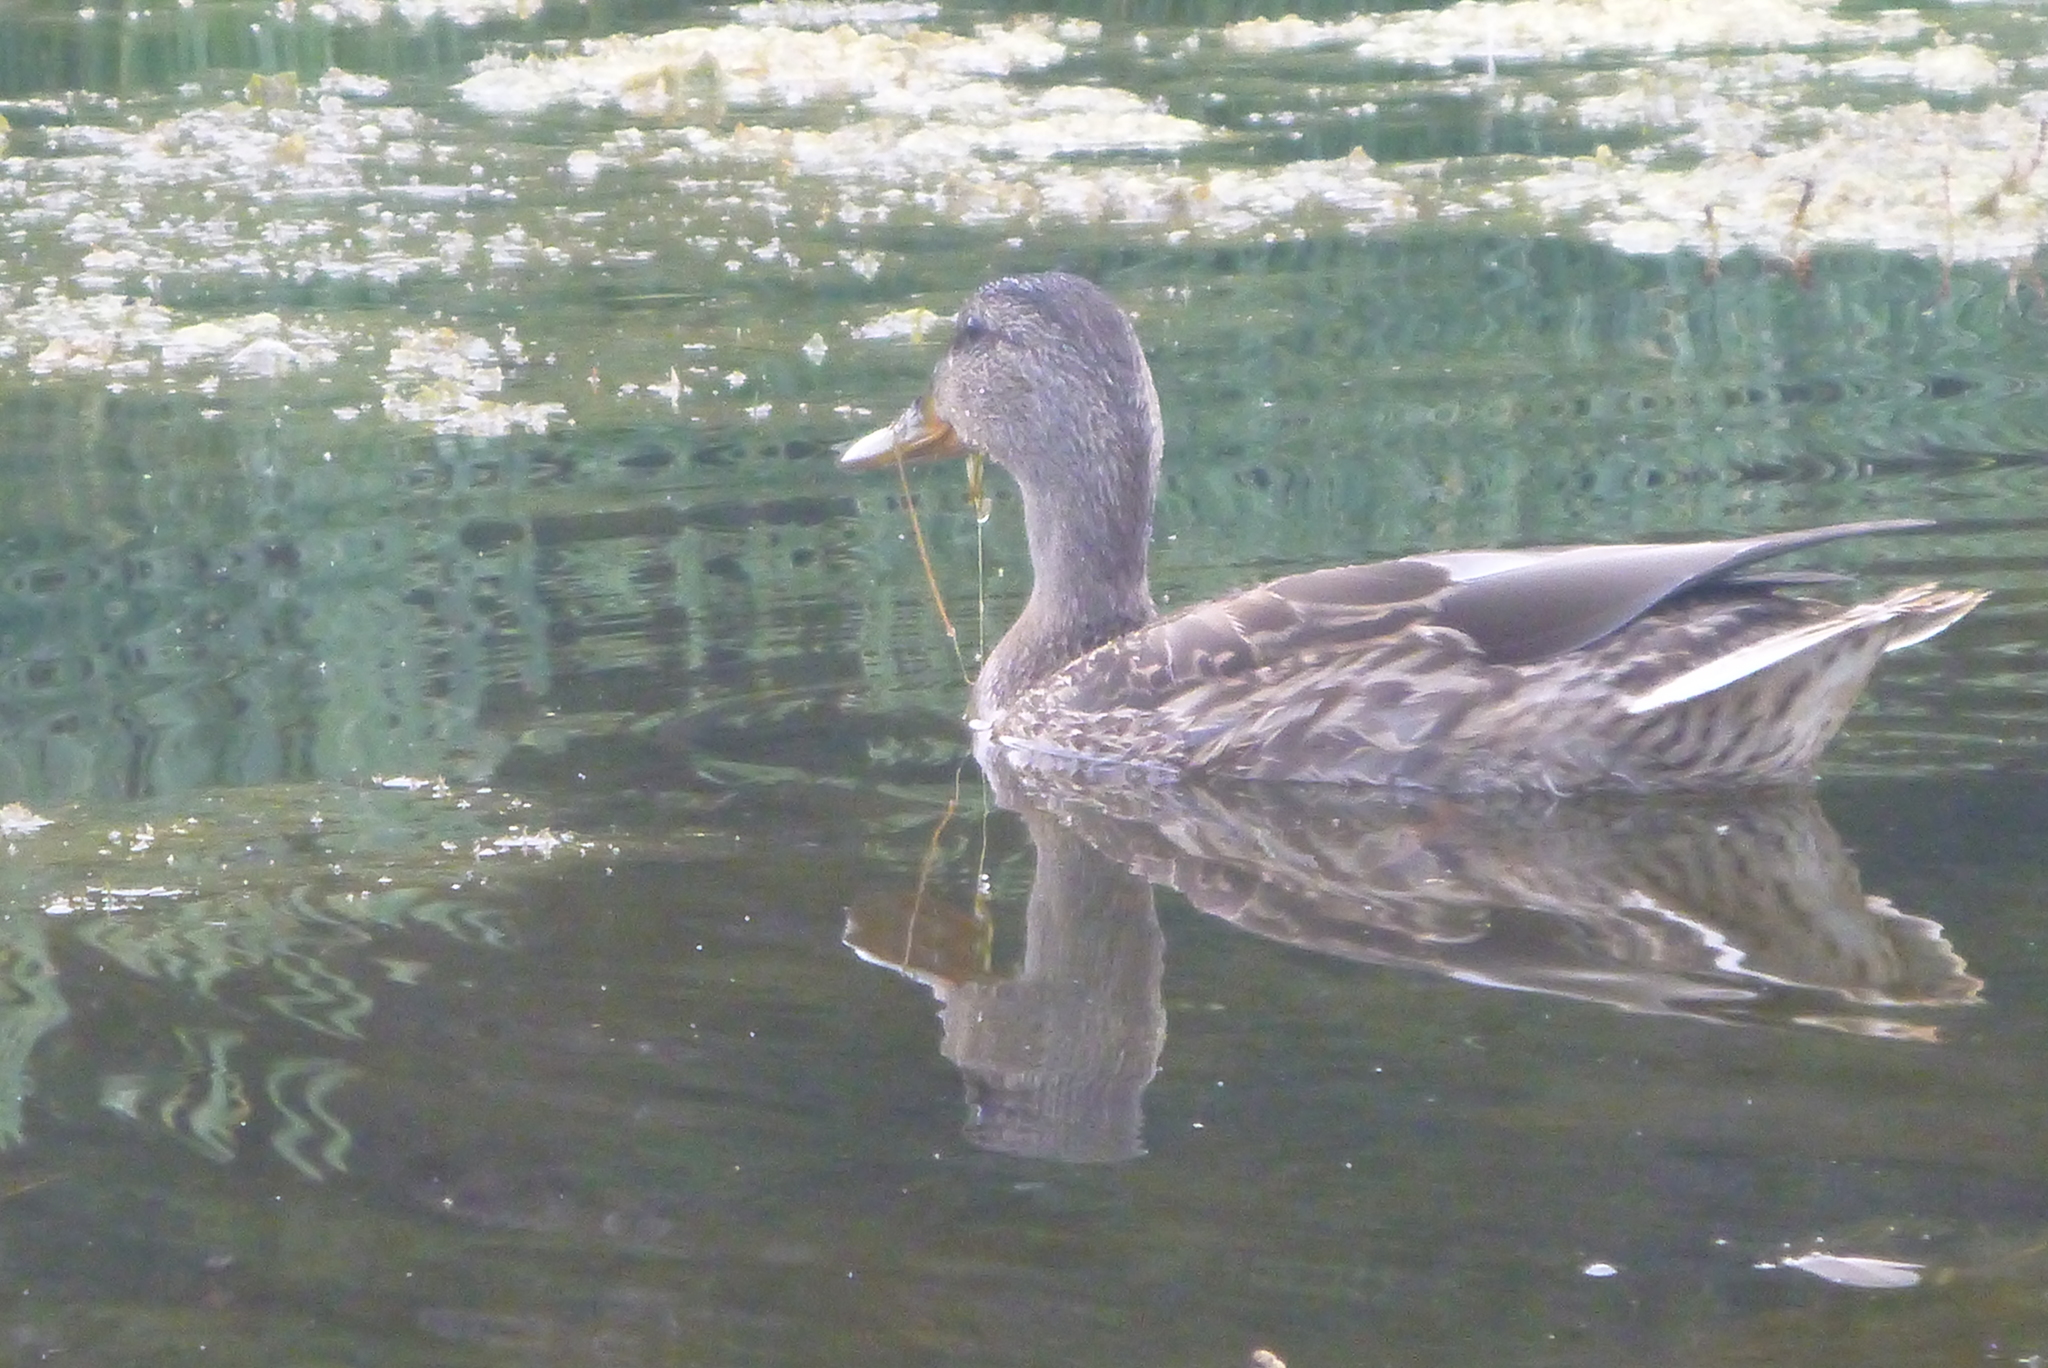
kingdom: Animalia
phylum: Chordata
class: Aves
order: Anseriformes
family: Anatidae
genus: Anas
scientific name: Anas platyrhynchos
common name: Mallard
